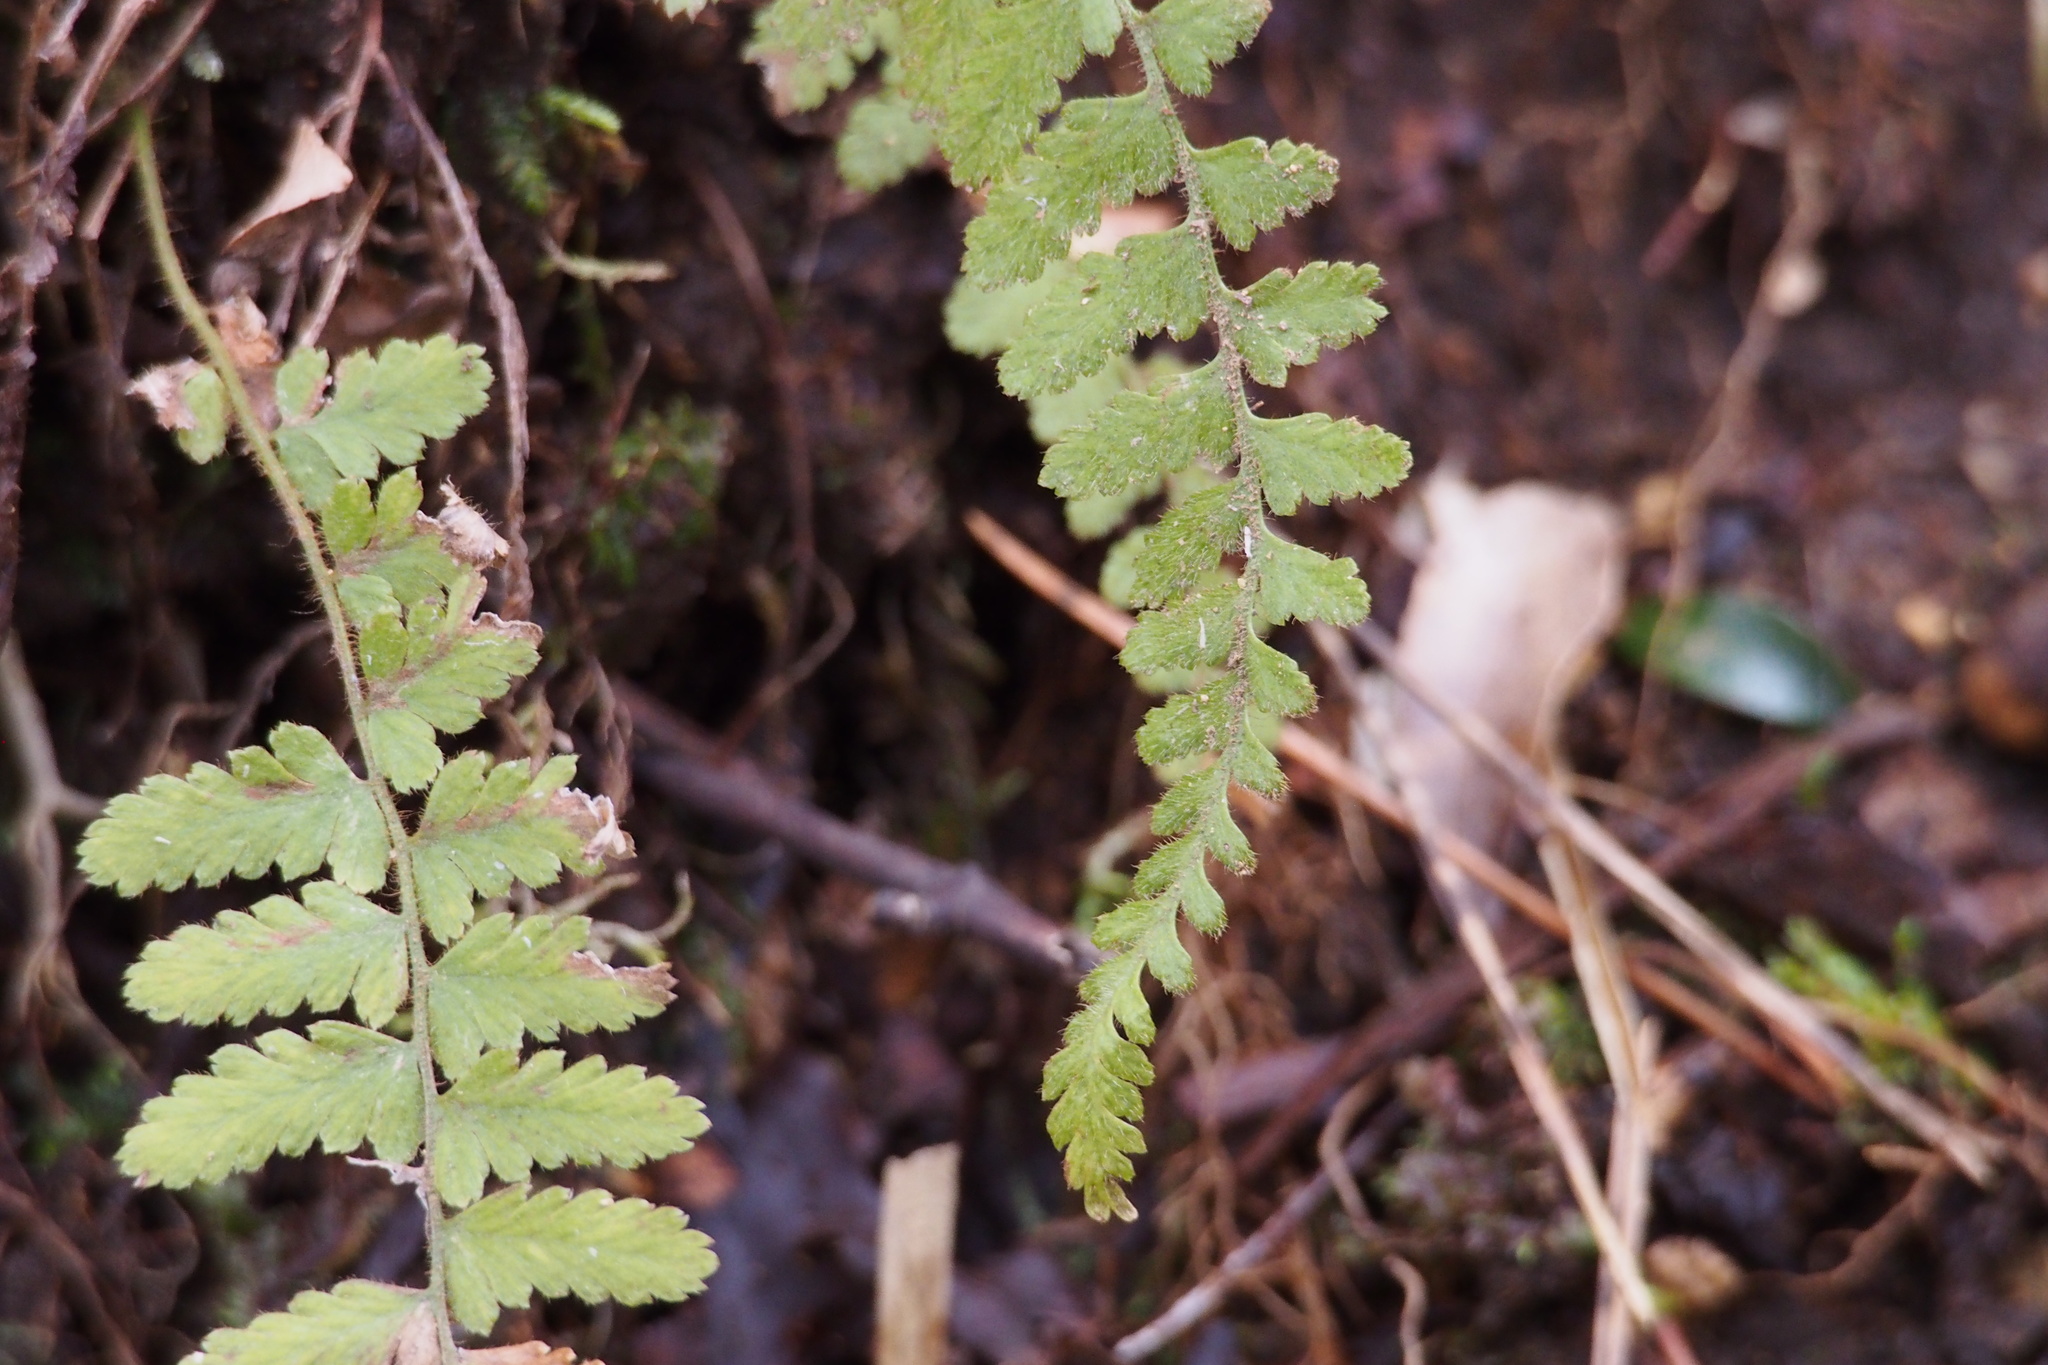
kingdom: Plantae
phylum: Tracheophyta
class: Polypodiopsida
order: Polypodiales
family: Dennstaedtiaceae
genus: Sitobolium
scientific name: Sitobolium hirsutum
